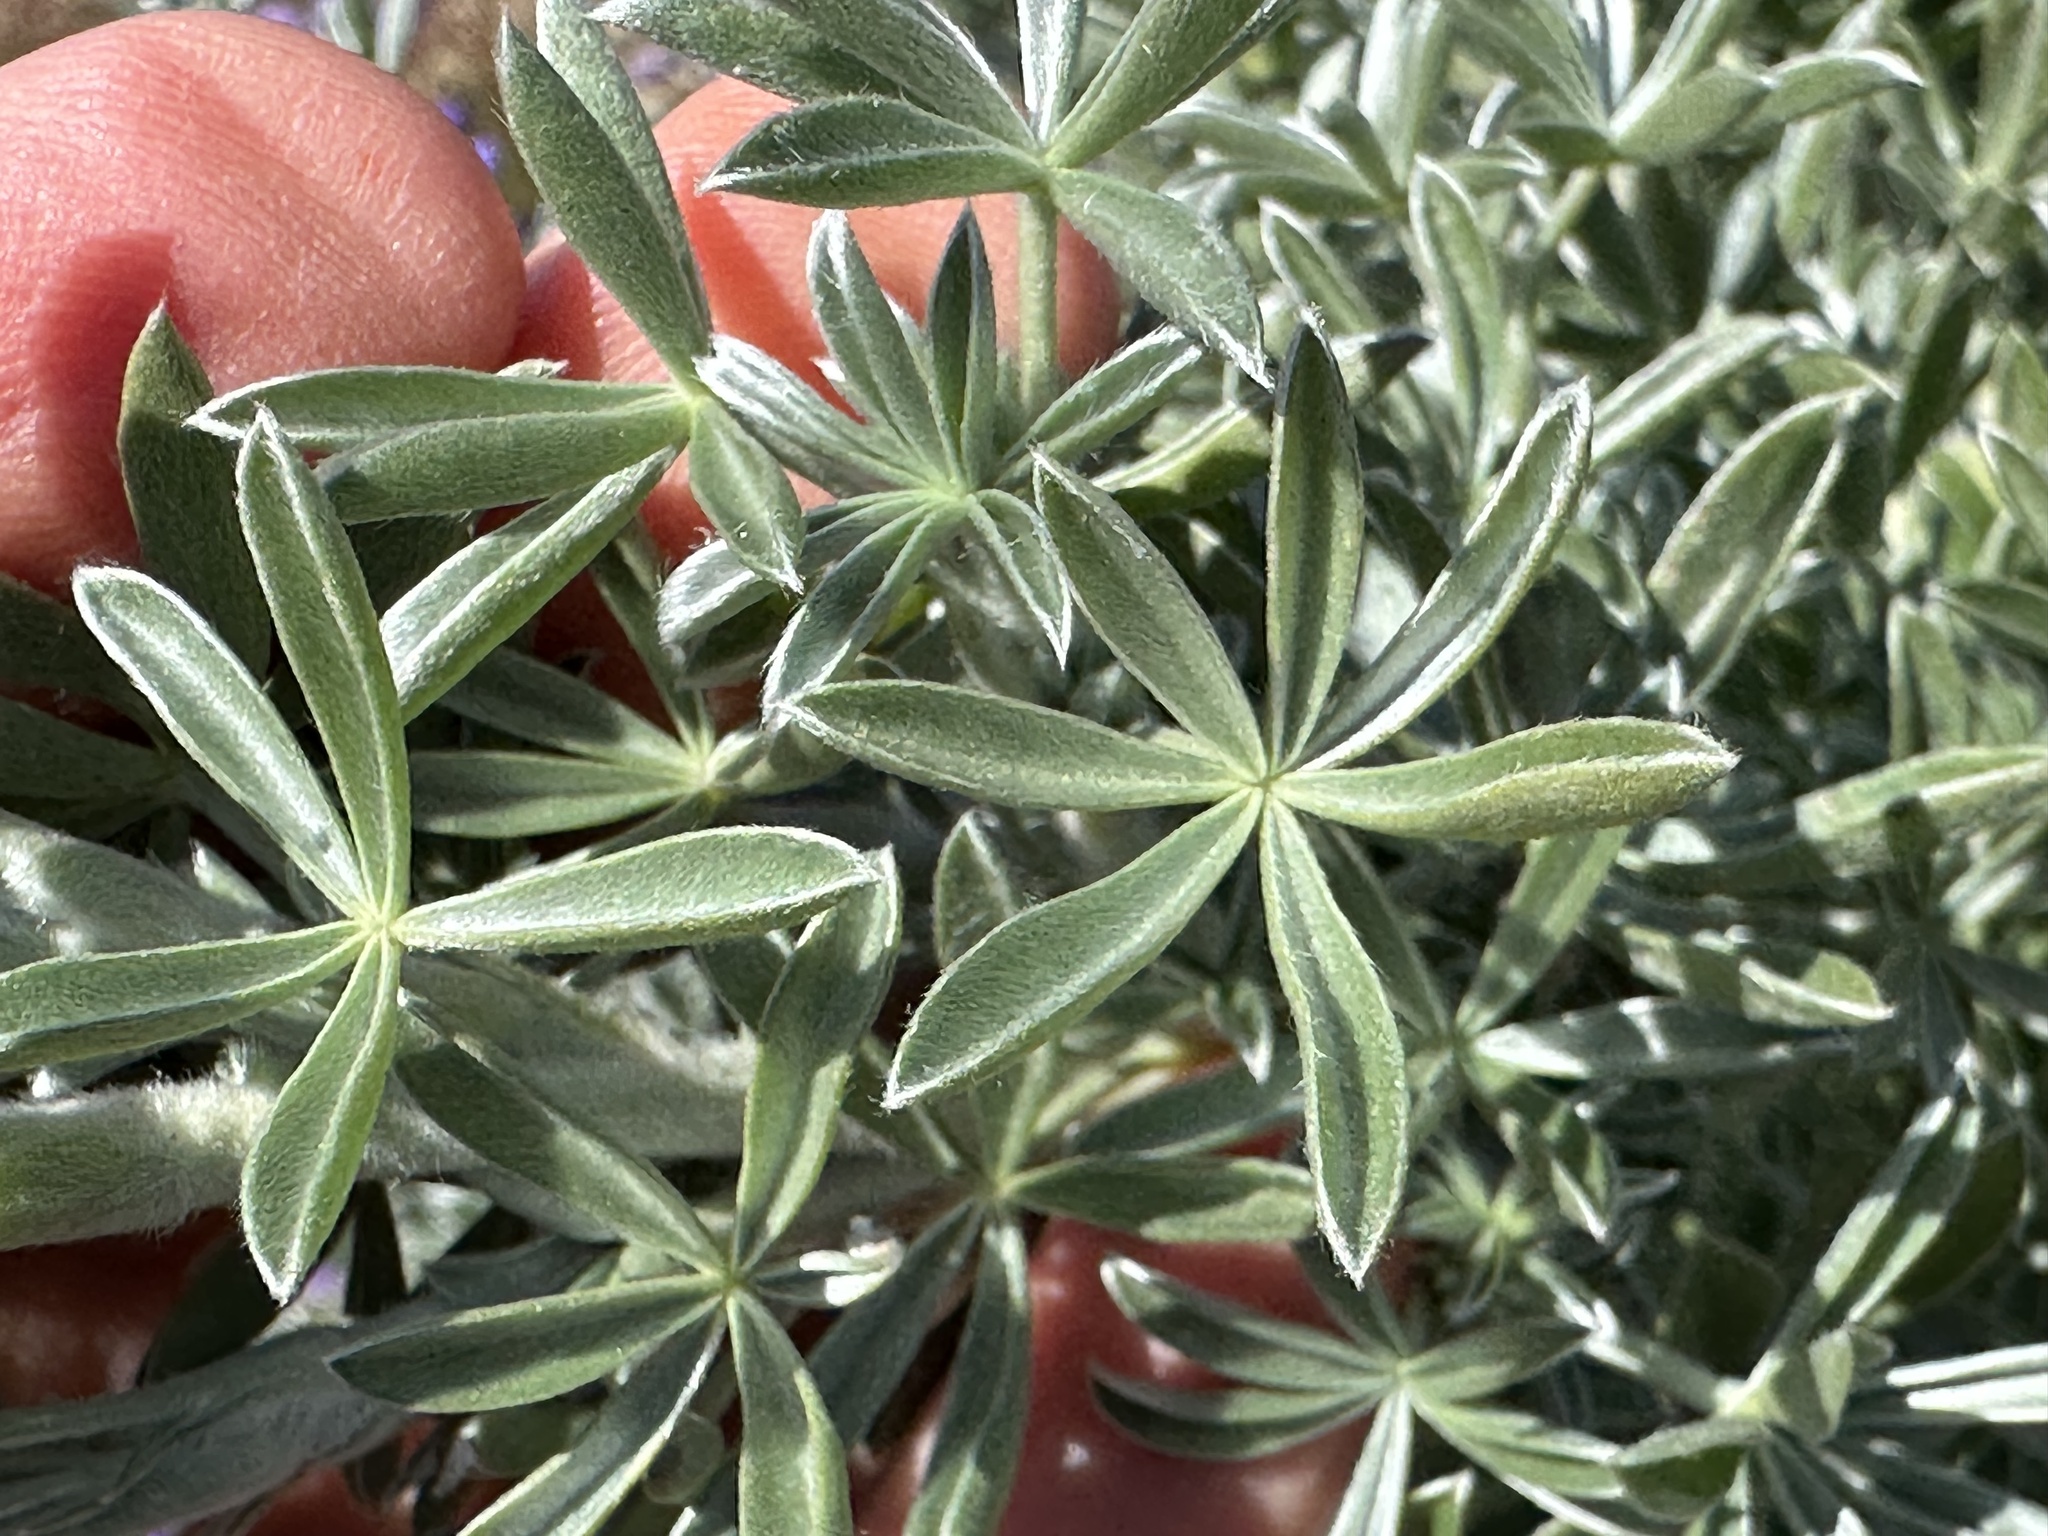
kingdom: Plantae
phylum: Tracheophyta
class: Magnoliopsida
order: Fabales
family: Fabaceae
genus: Lupinus
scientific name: Lupinus chamissonis
